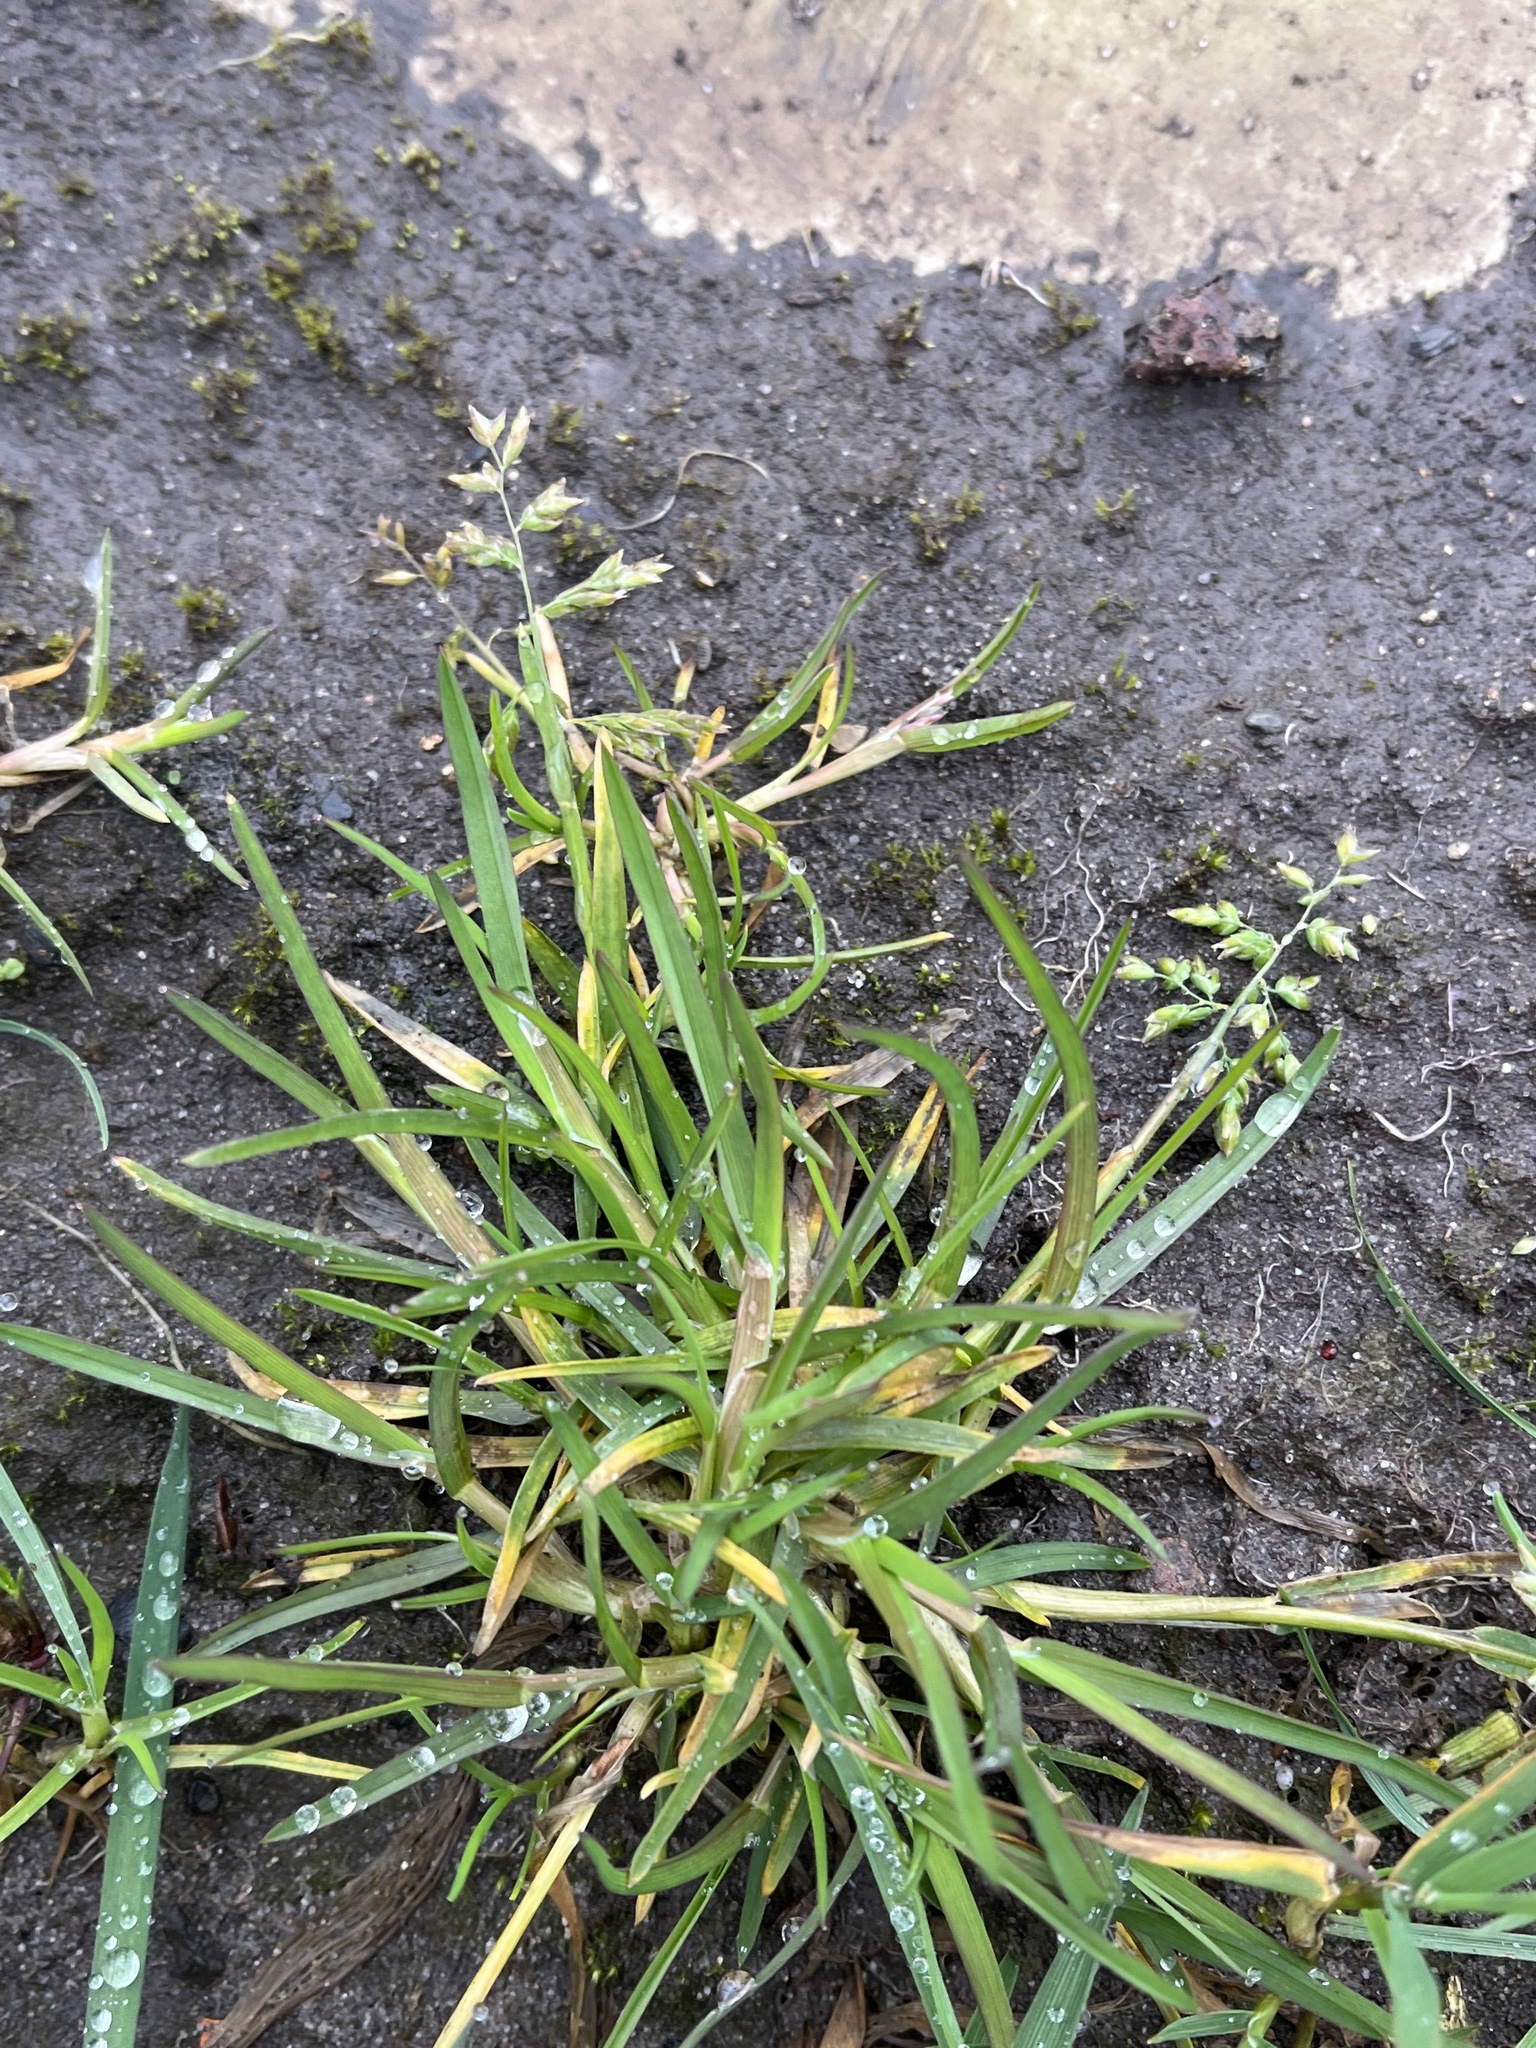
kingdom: Plantae
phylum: Tracheophyta
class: Liliopsida
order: Poales
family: Poaceae
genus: Poa
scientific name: Poa annua
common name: Annual bluegrass
